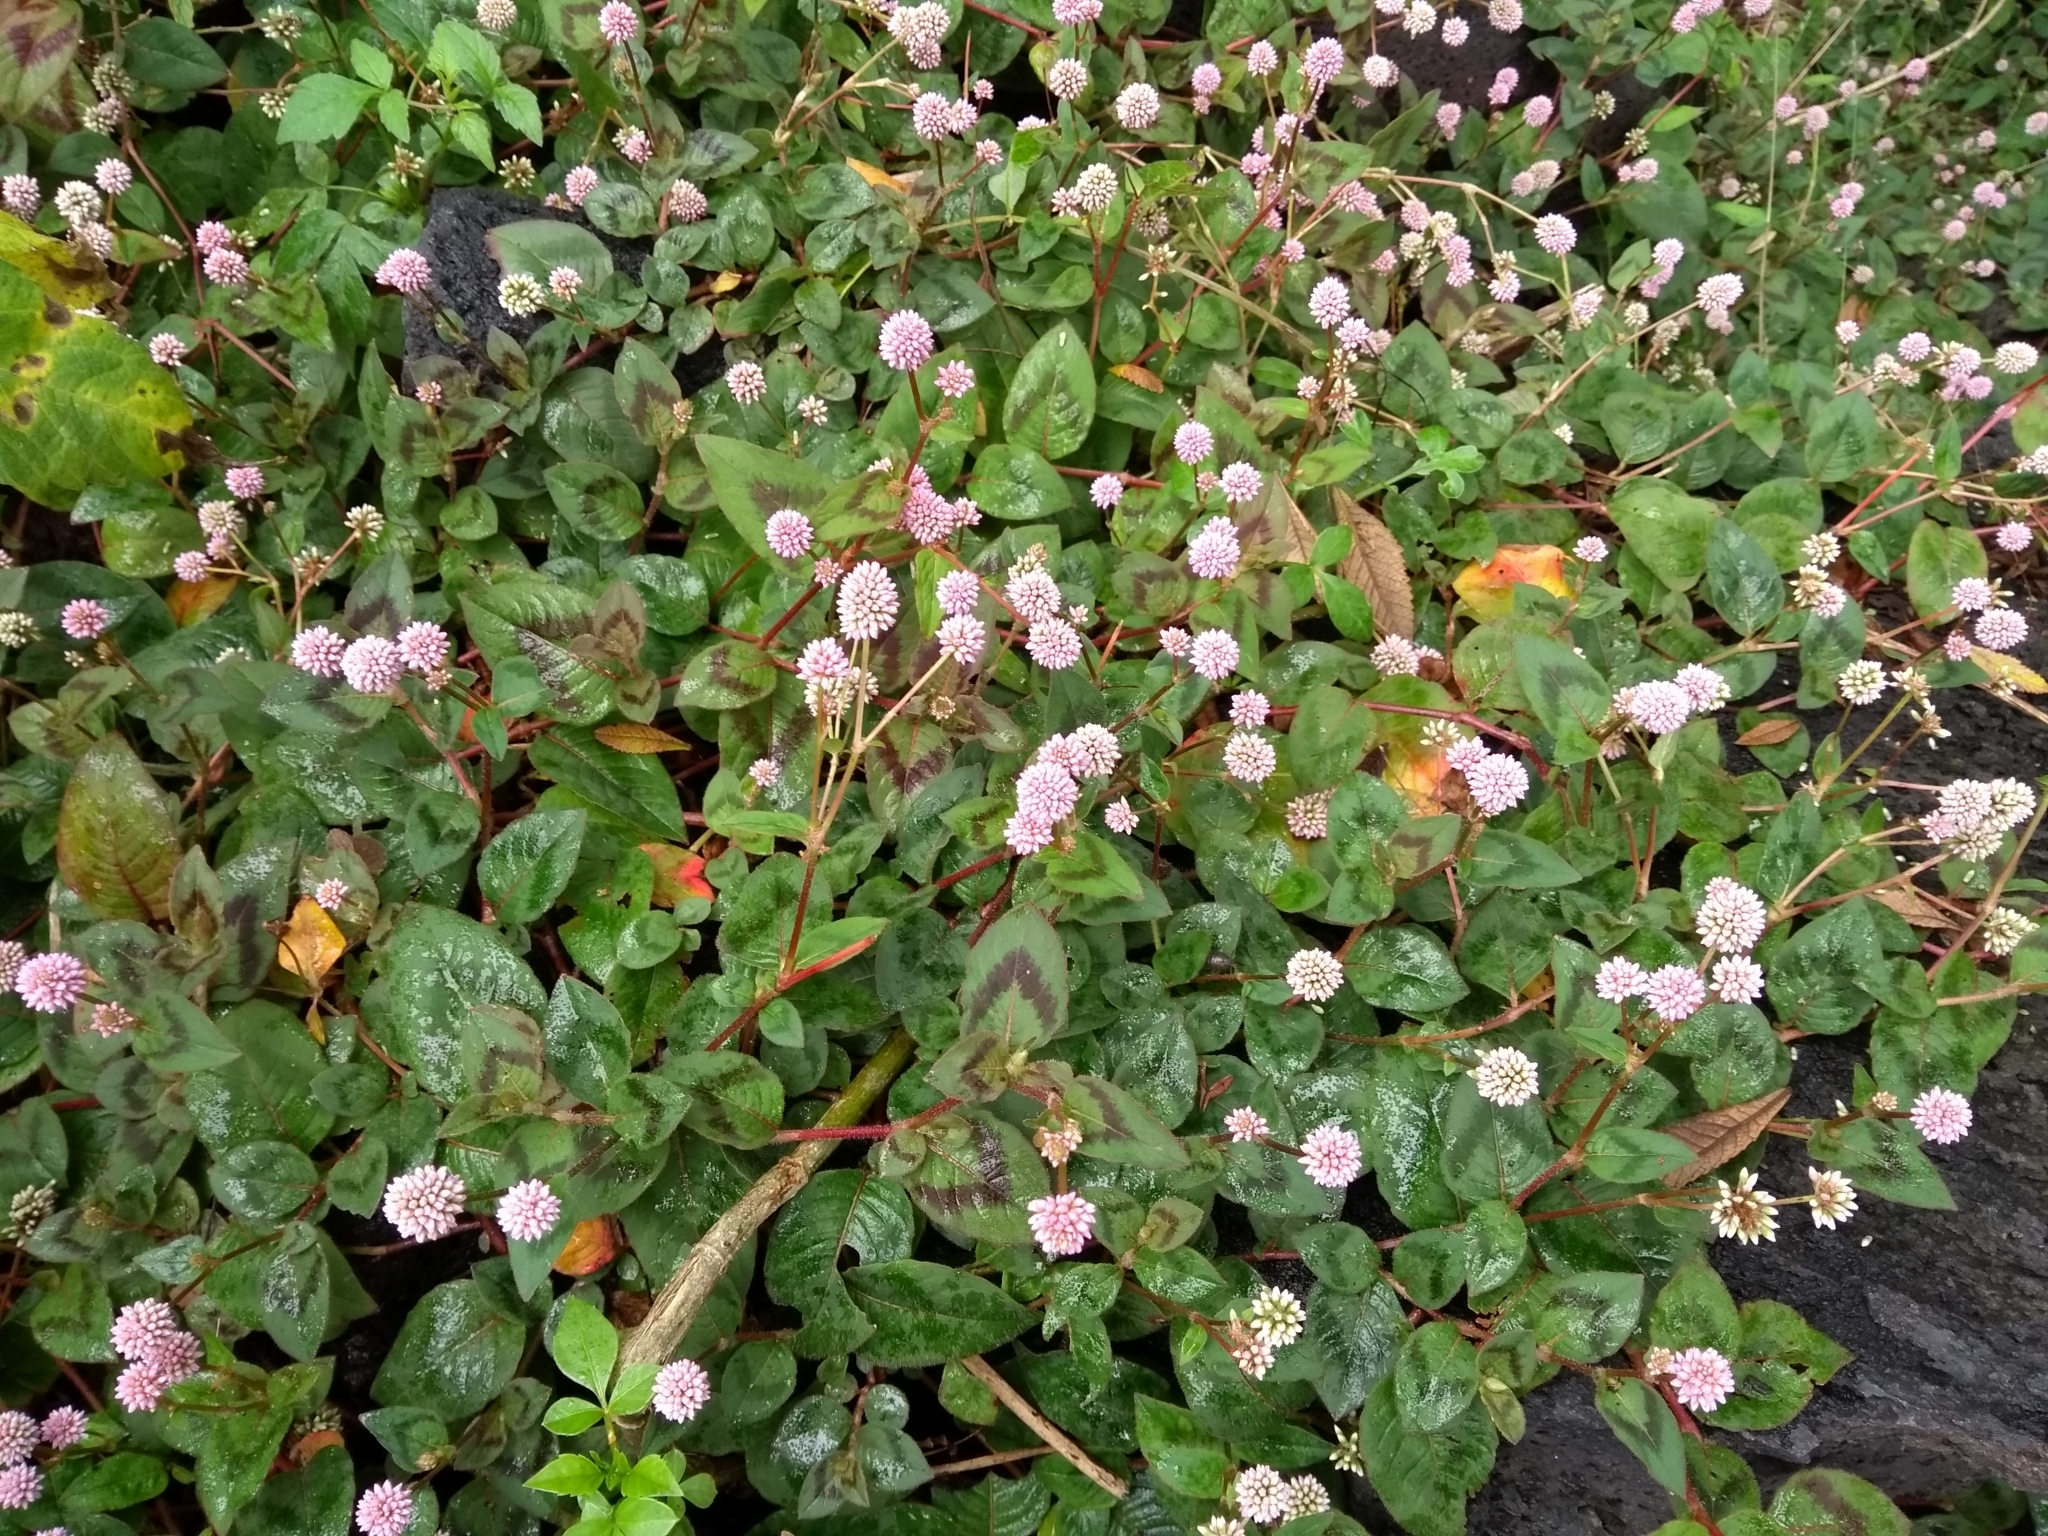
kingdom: Plantae
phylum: Tracheophyta
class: Magnoliopsida
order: Caryophyllales
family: Polygonaceae
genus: Persicaria
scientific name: Persicaria capitata
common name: Pinkhead smartweed
